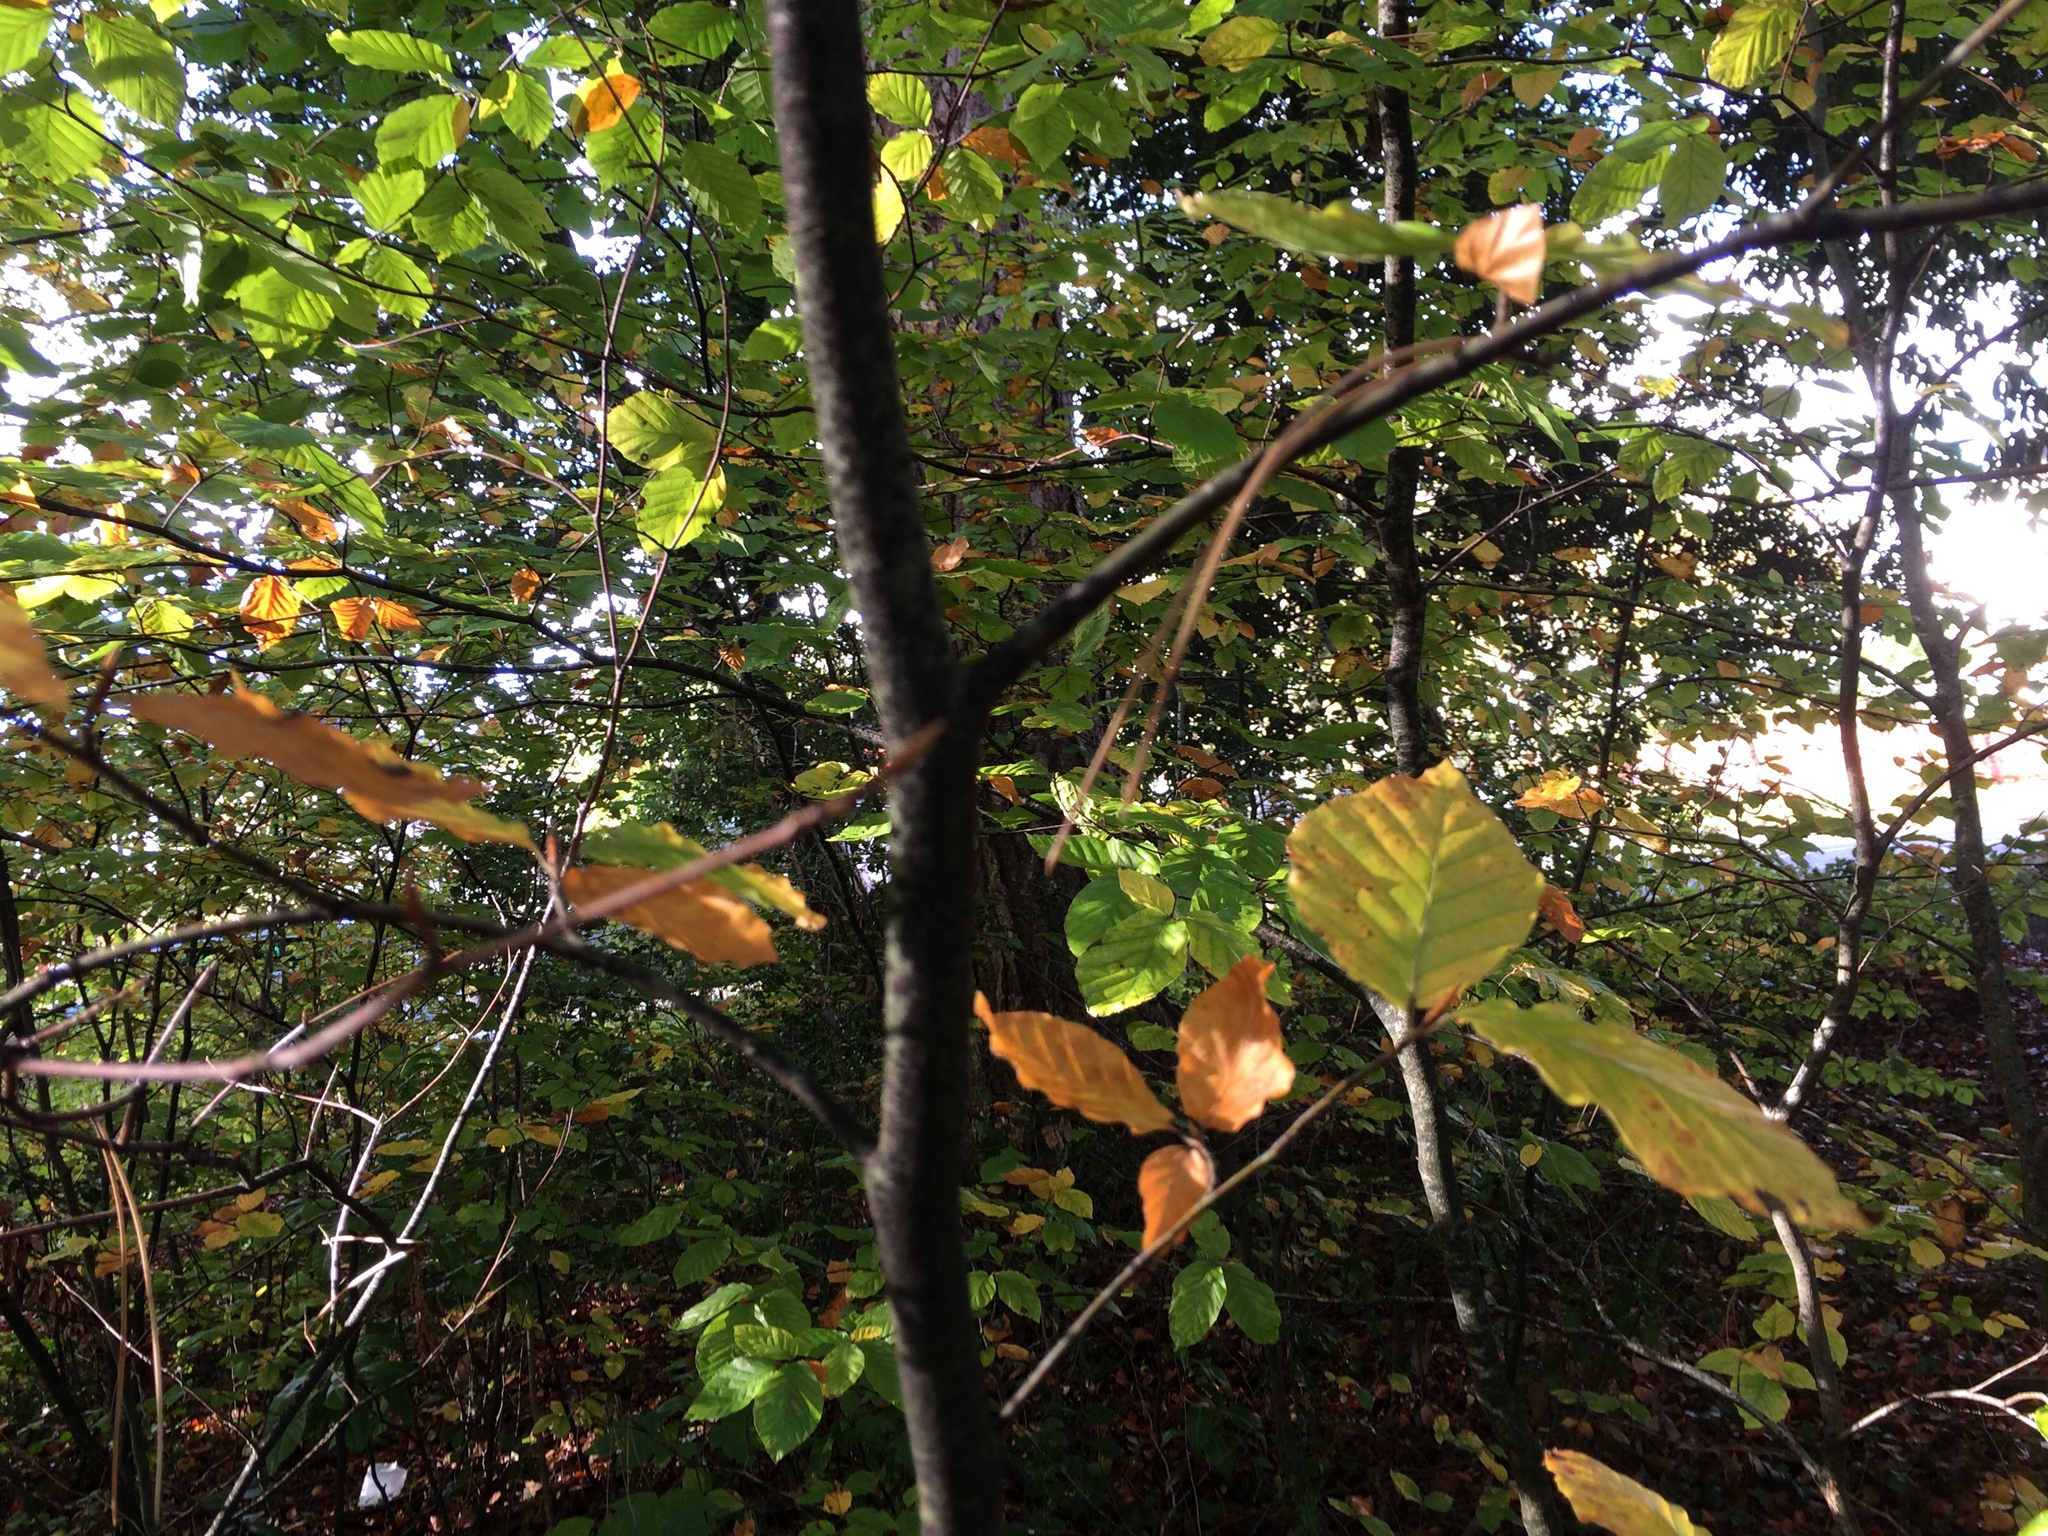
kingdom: Plantae
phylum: Tracheophyta
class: Magnoliopsida
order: Fagales
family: Fagaceae
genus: Fagus
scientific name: Fagus sylvatica
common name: Beech
